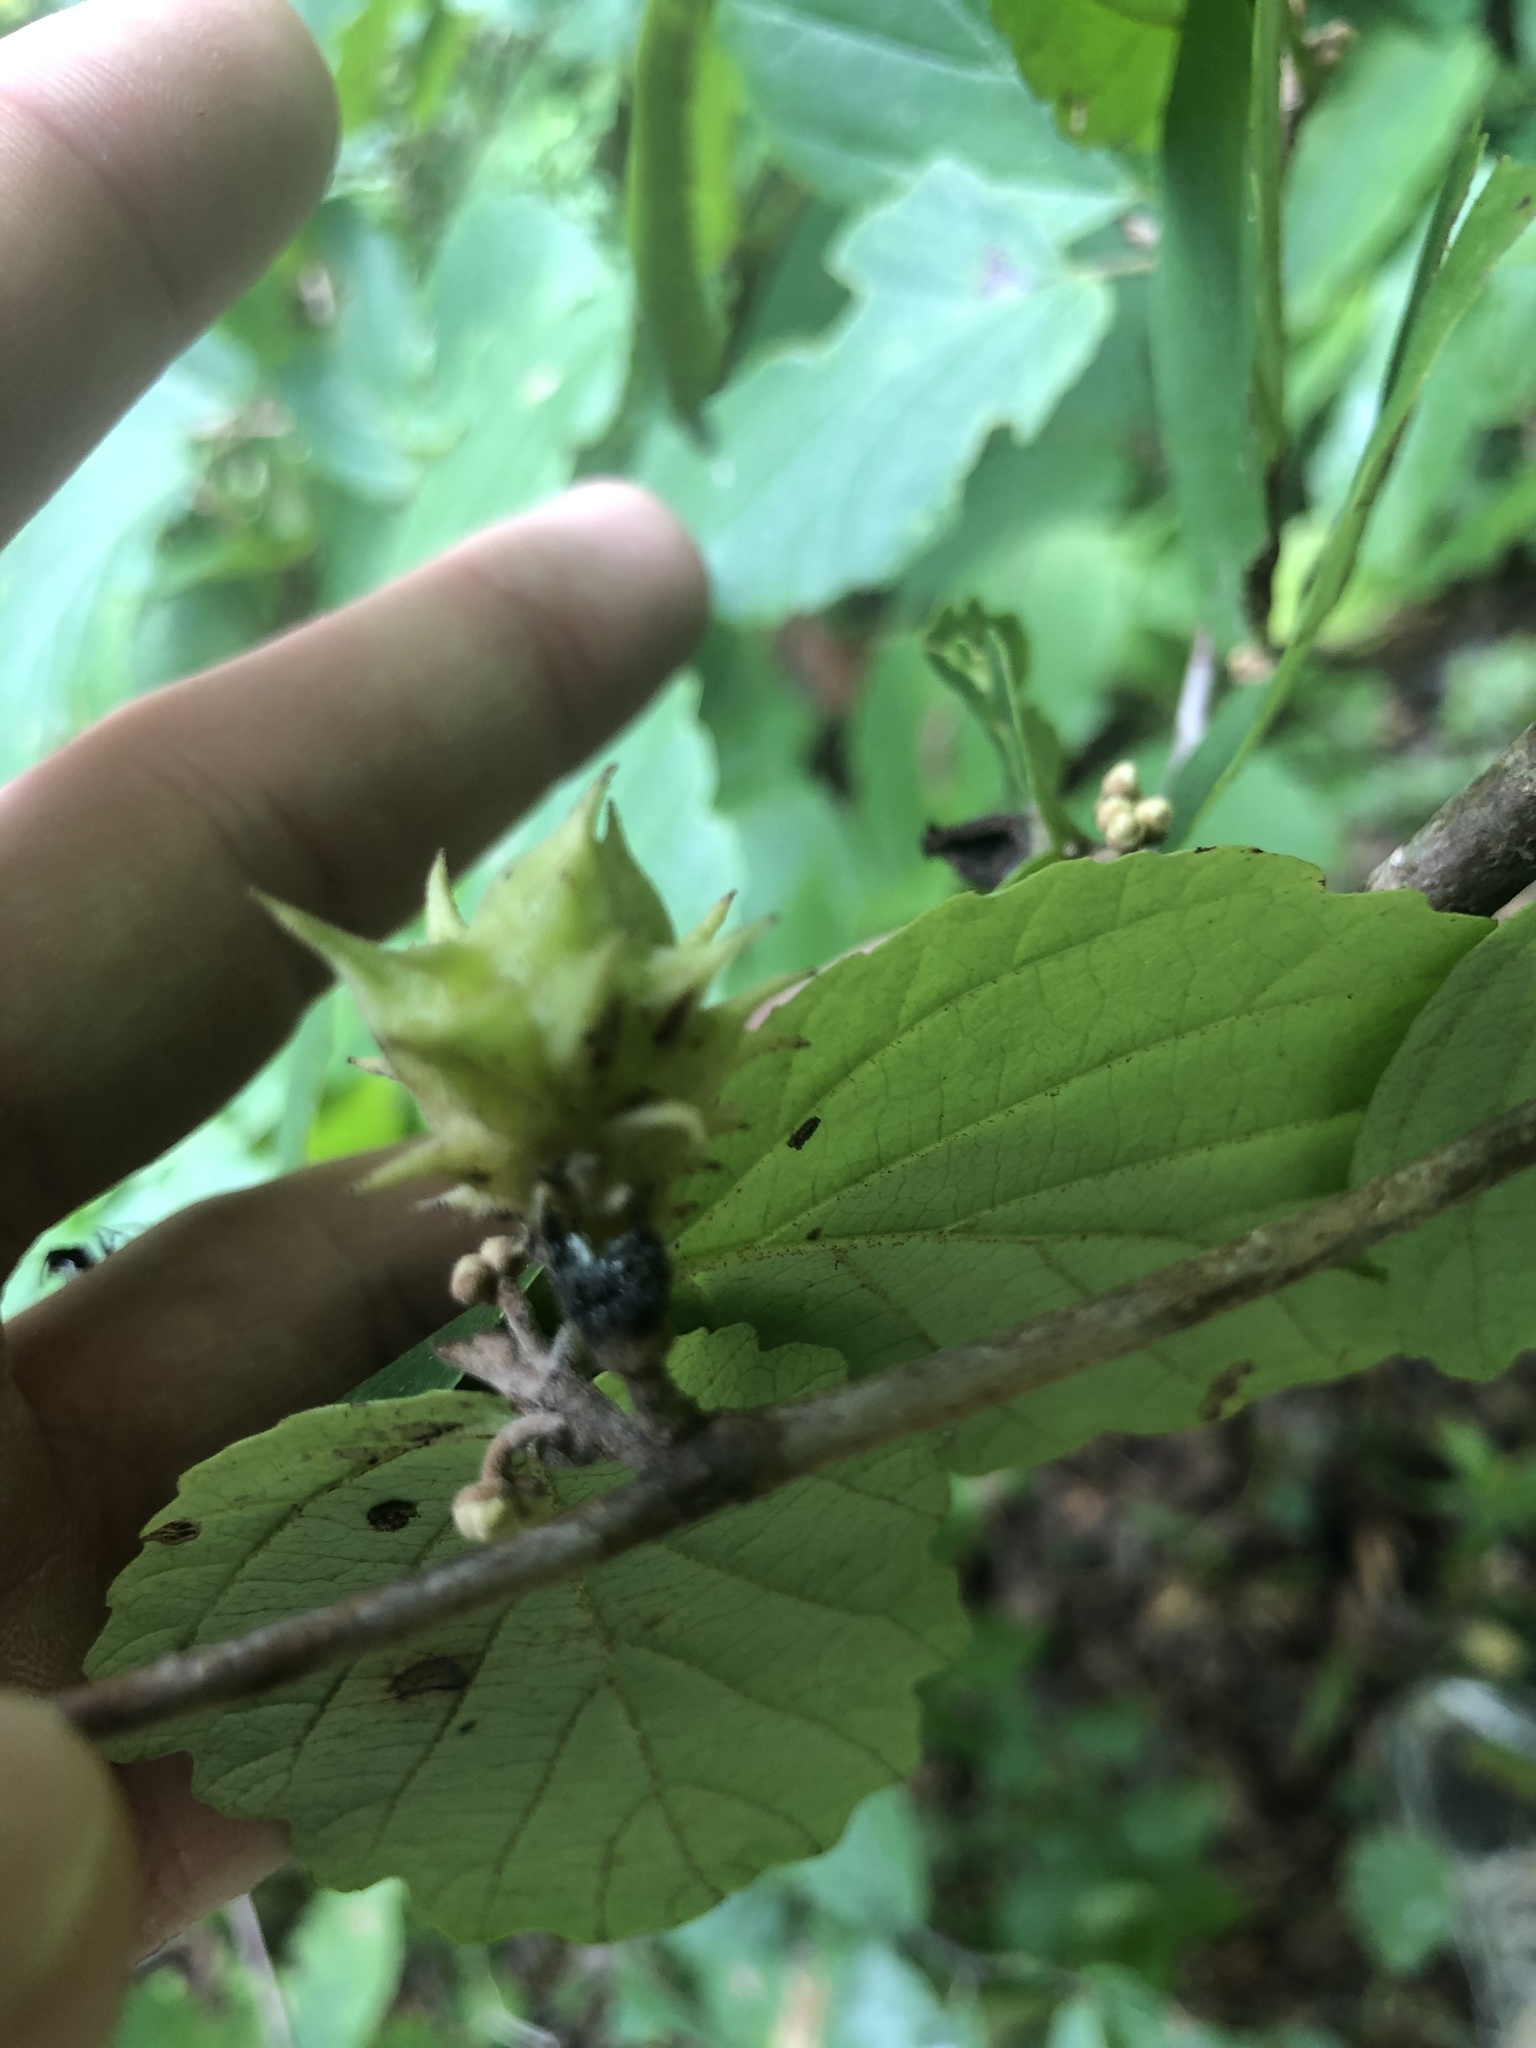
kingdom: Plantae
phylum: Tracheophyta
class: Magnoliopsida
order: Saxifragales
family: Hamamelidaceae
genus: Fothergilla
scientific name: Fothergilla latifolia
